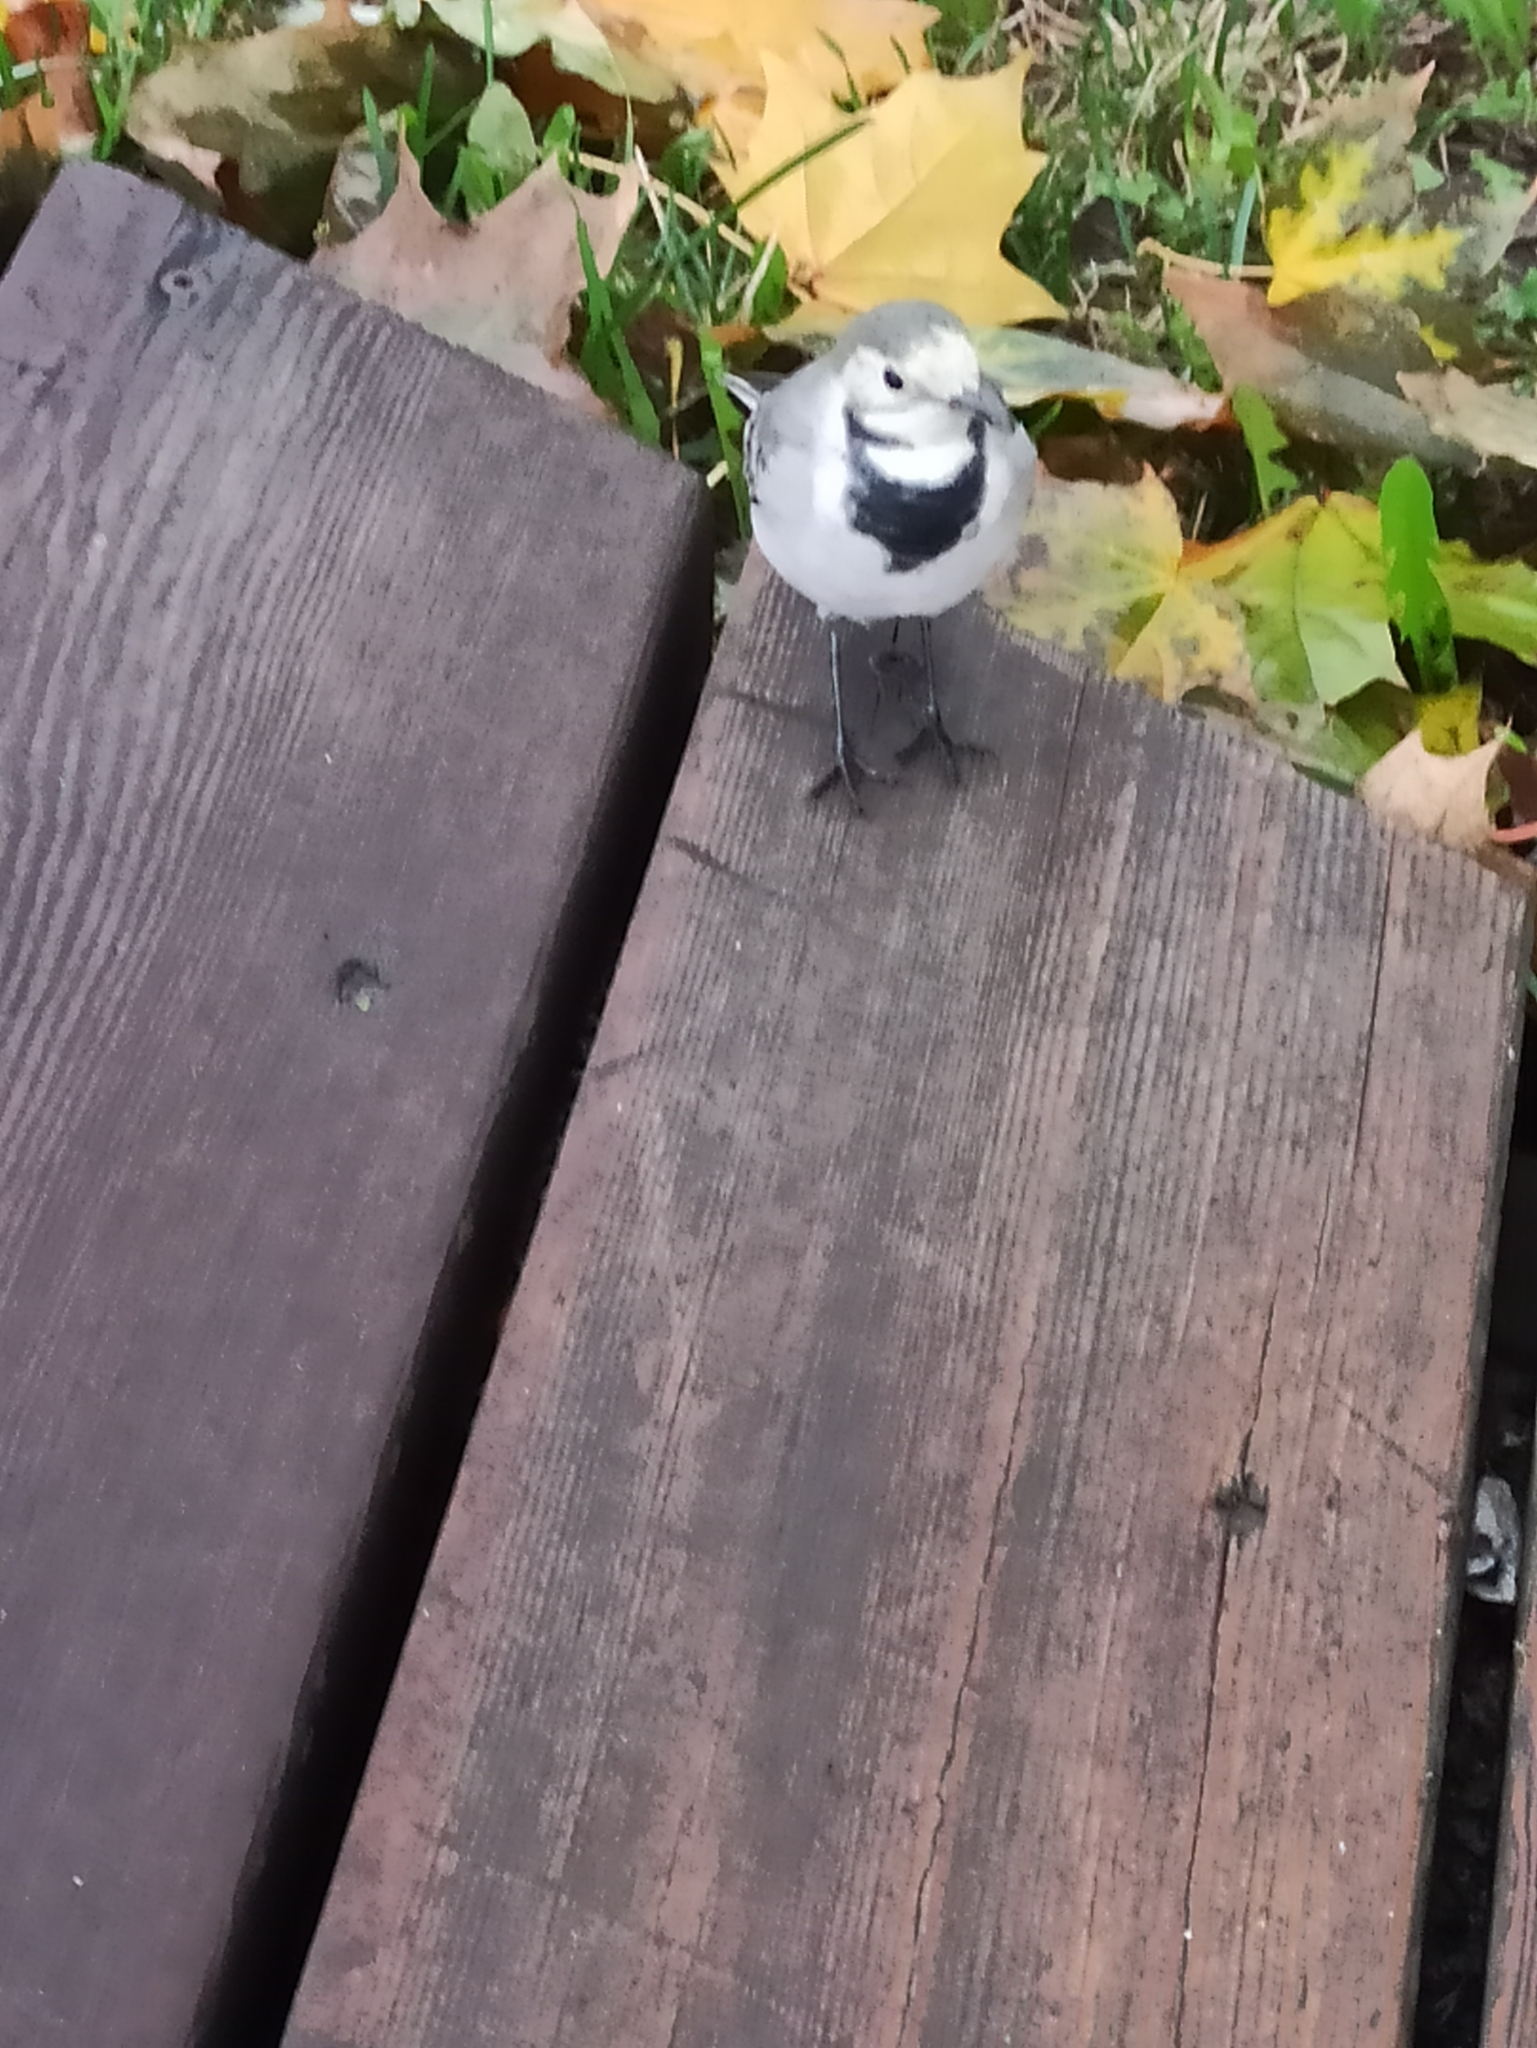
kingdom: Animalia
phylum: Chordata
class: Aves
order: Passeriformes
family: Motacillidae
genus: Motacilla
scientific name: Motacilla alba
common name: White wagtail
